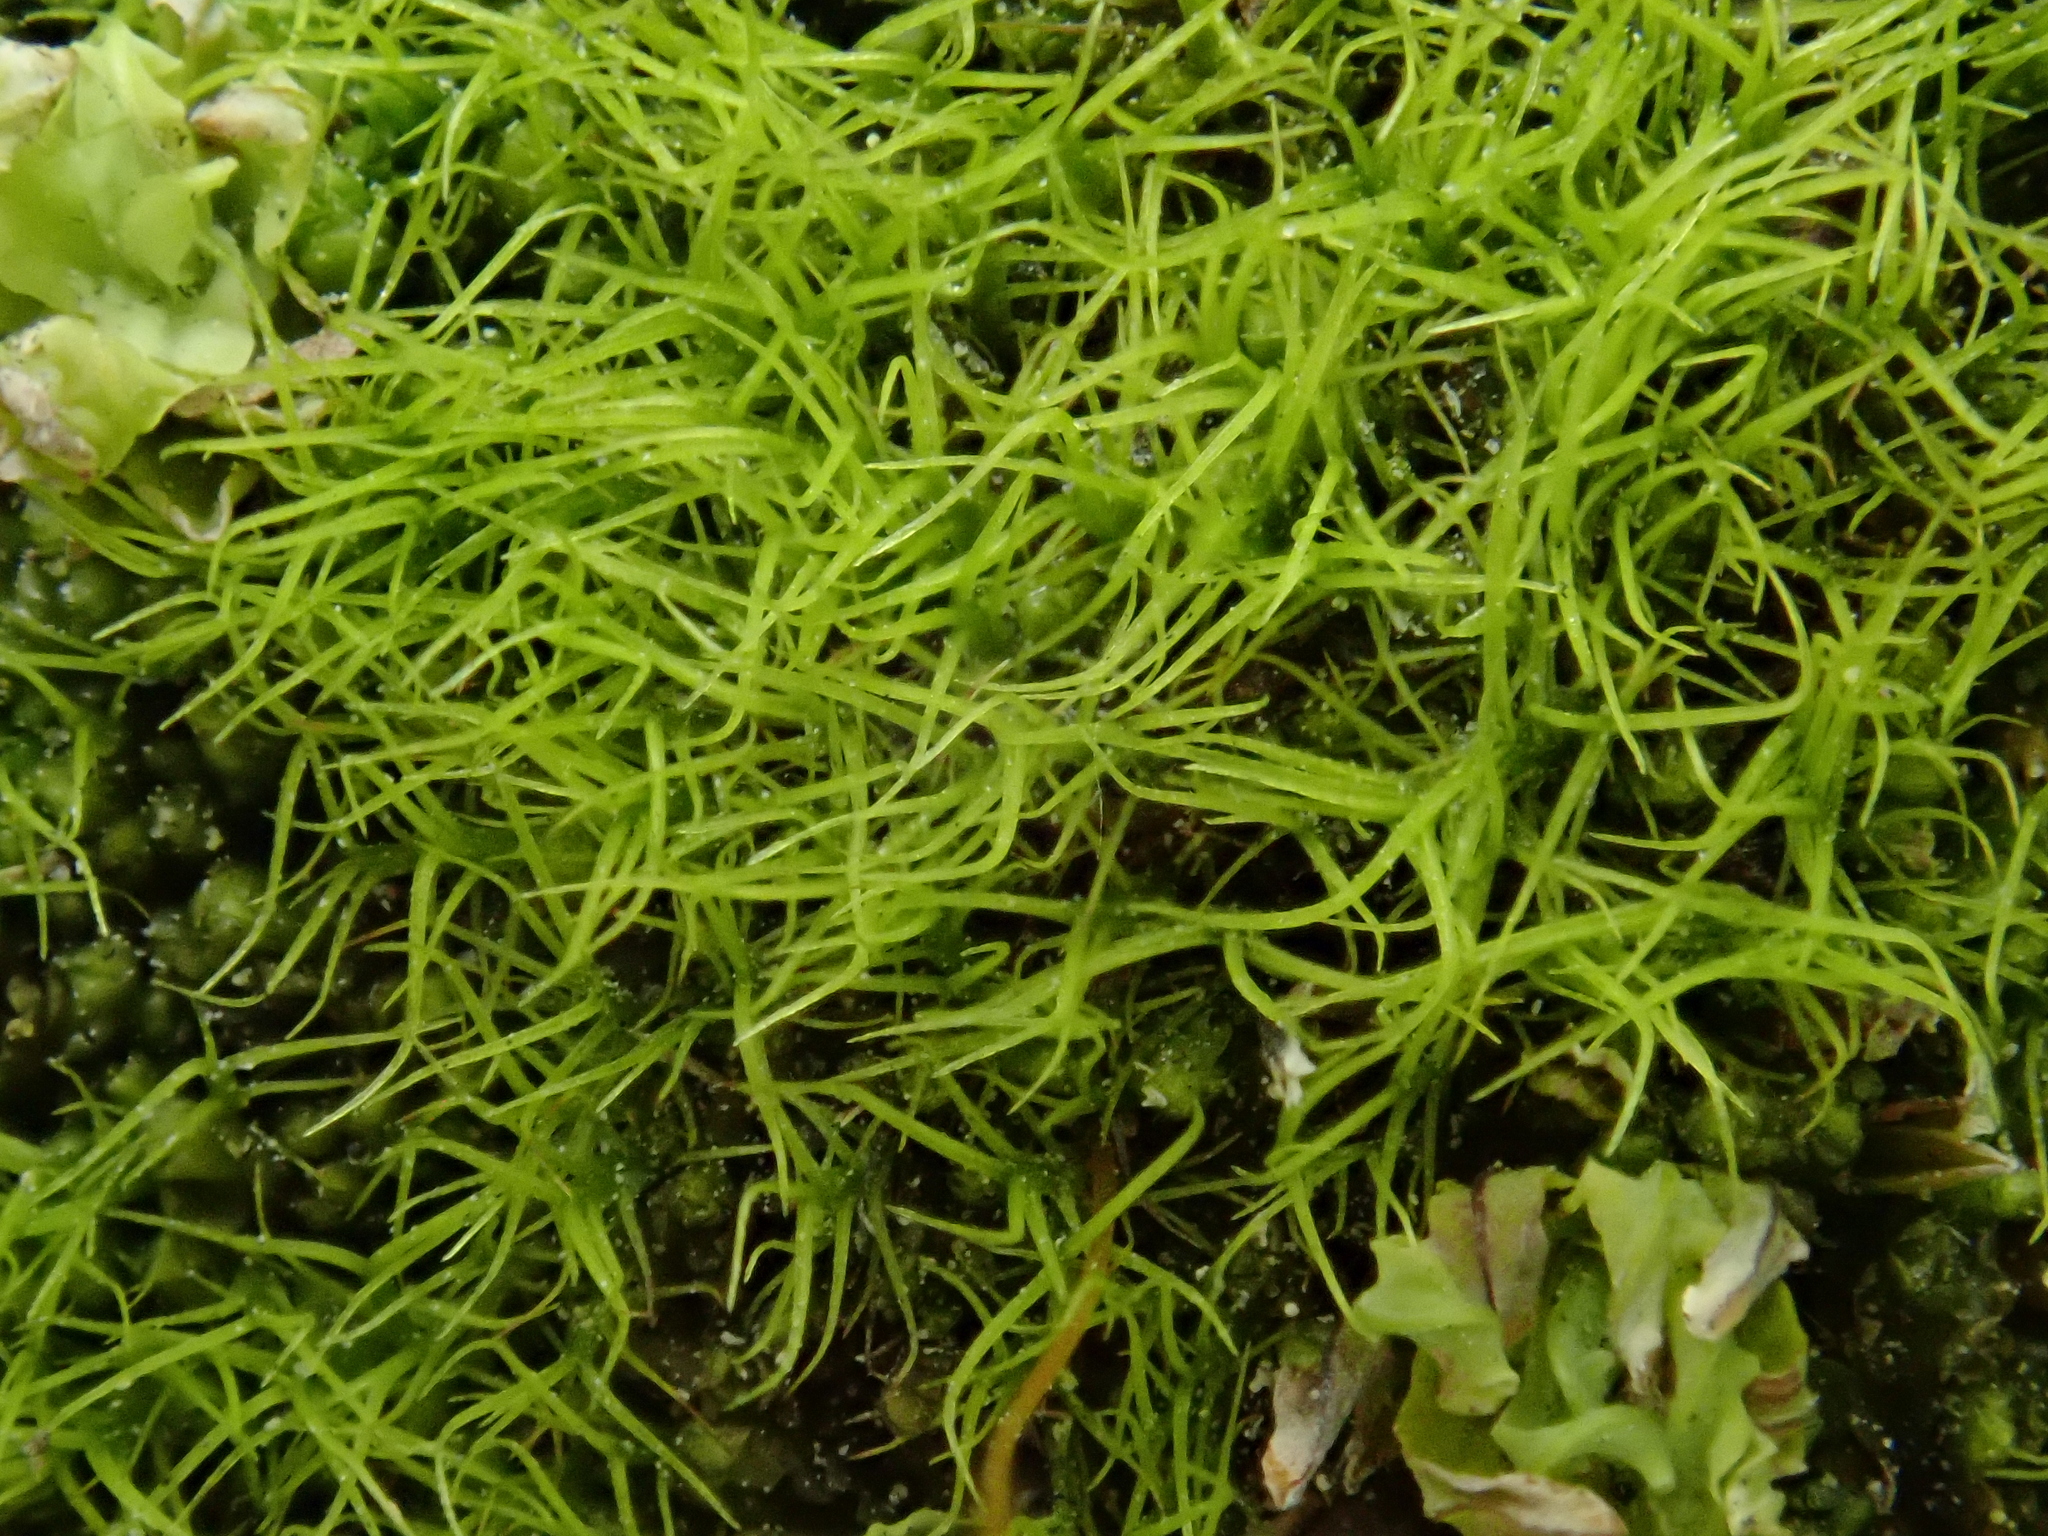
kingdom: Plantae
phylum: Bryophyta
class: Bryopsida
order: Scouleriales
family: Distichiaceae
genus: Distichium
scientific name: Distichium capillaceum
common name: Erect-fruited iris moss
